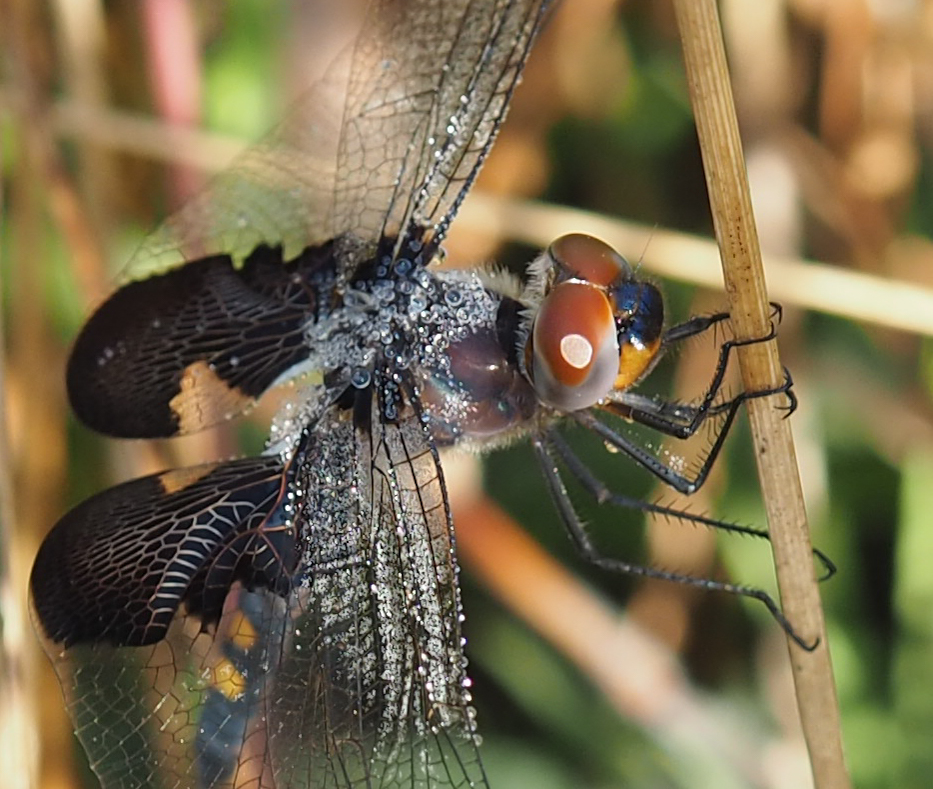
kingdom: Animalia
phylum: Arthropoda
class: Insecta
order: Odonata
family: Libellulidae
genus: Tramea
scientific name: Tramea lacerata
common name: Black saddlebags
